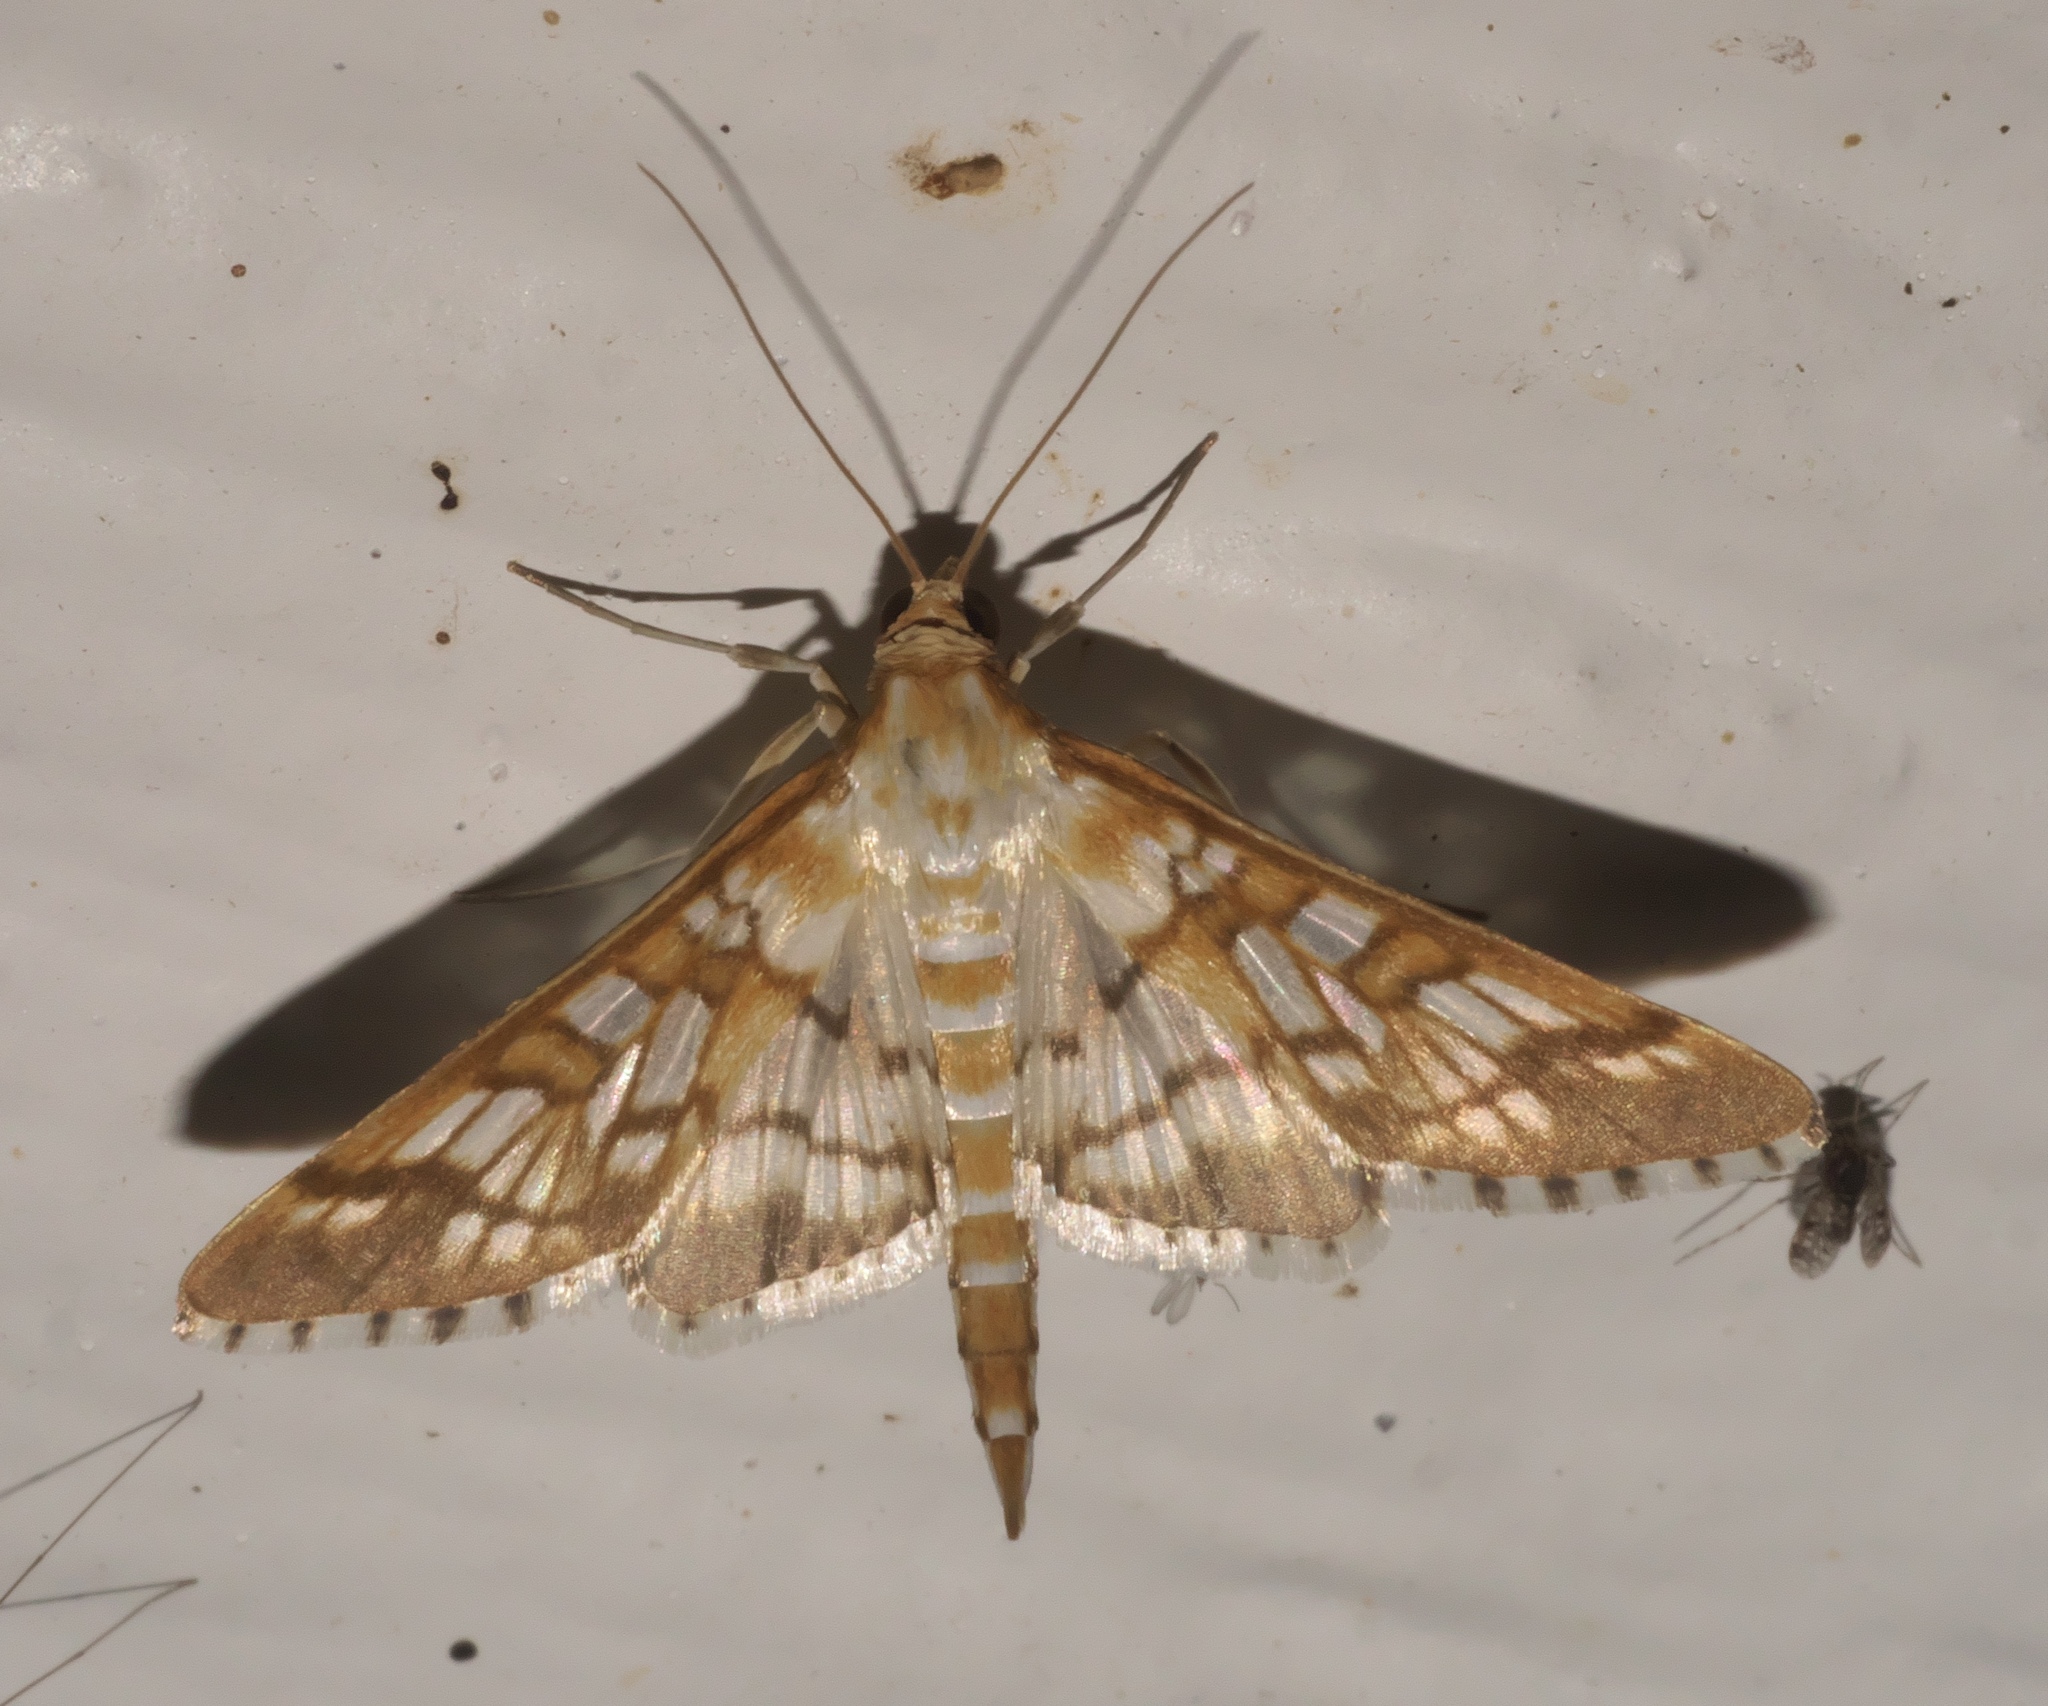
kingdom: Animalia
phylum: Arthropoda
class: Insecta
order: Lepidoptera
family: Crambidae
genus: Epipagis
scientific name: Epipagis fenestralis
